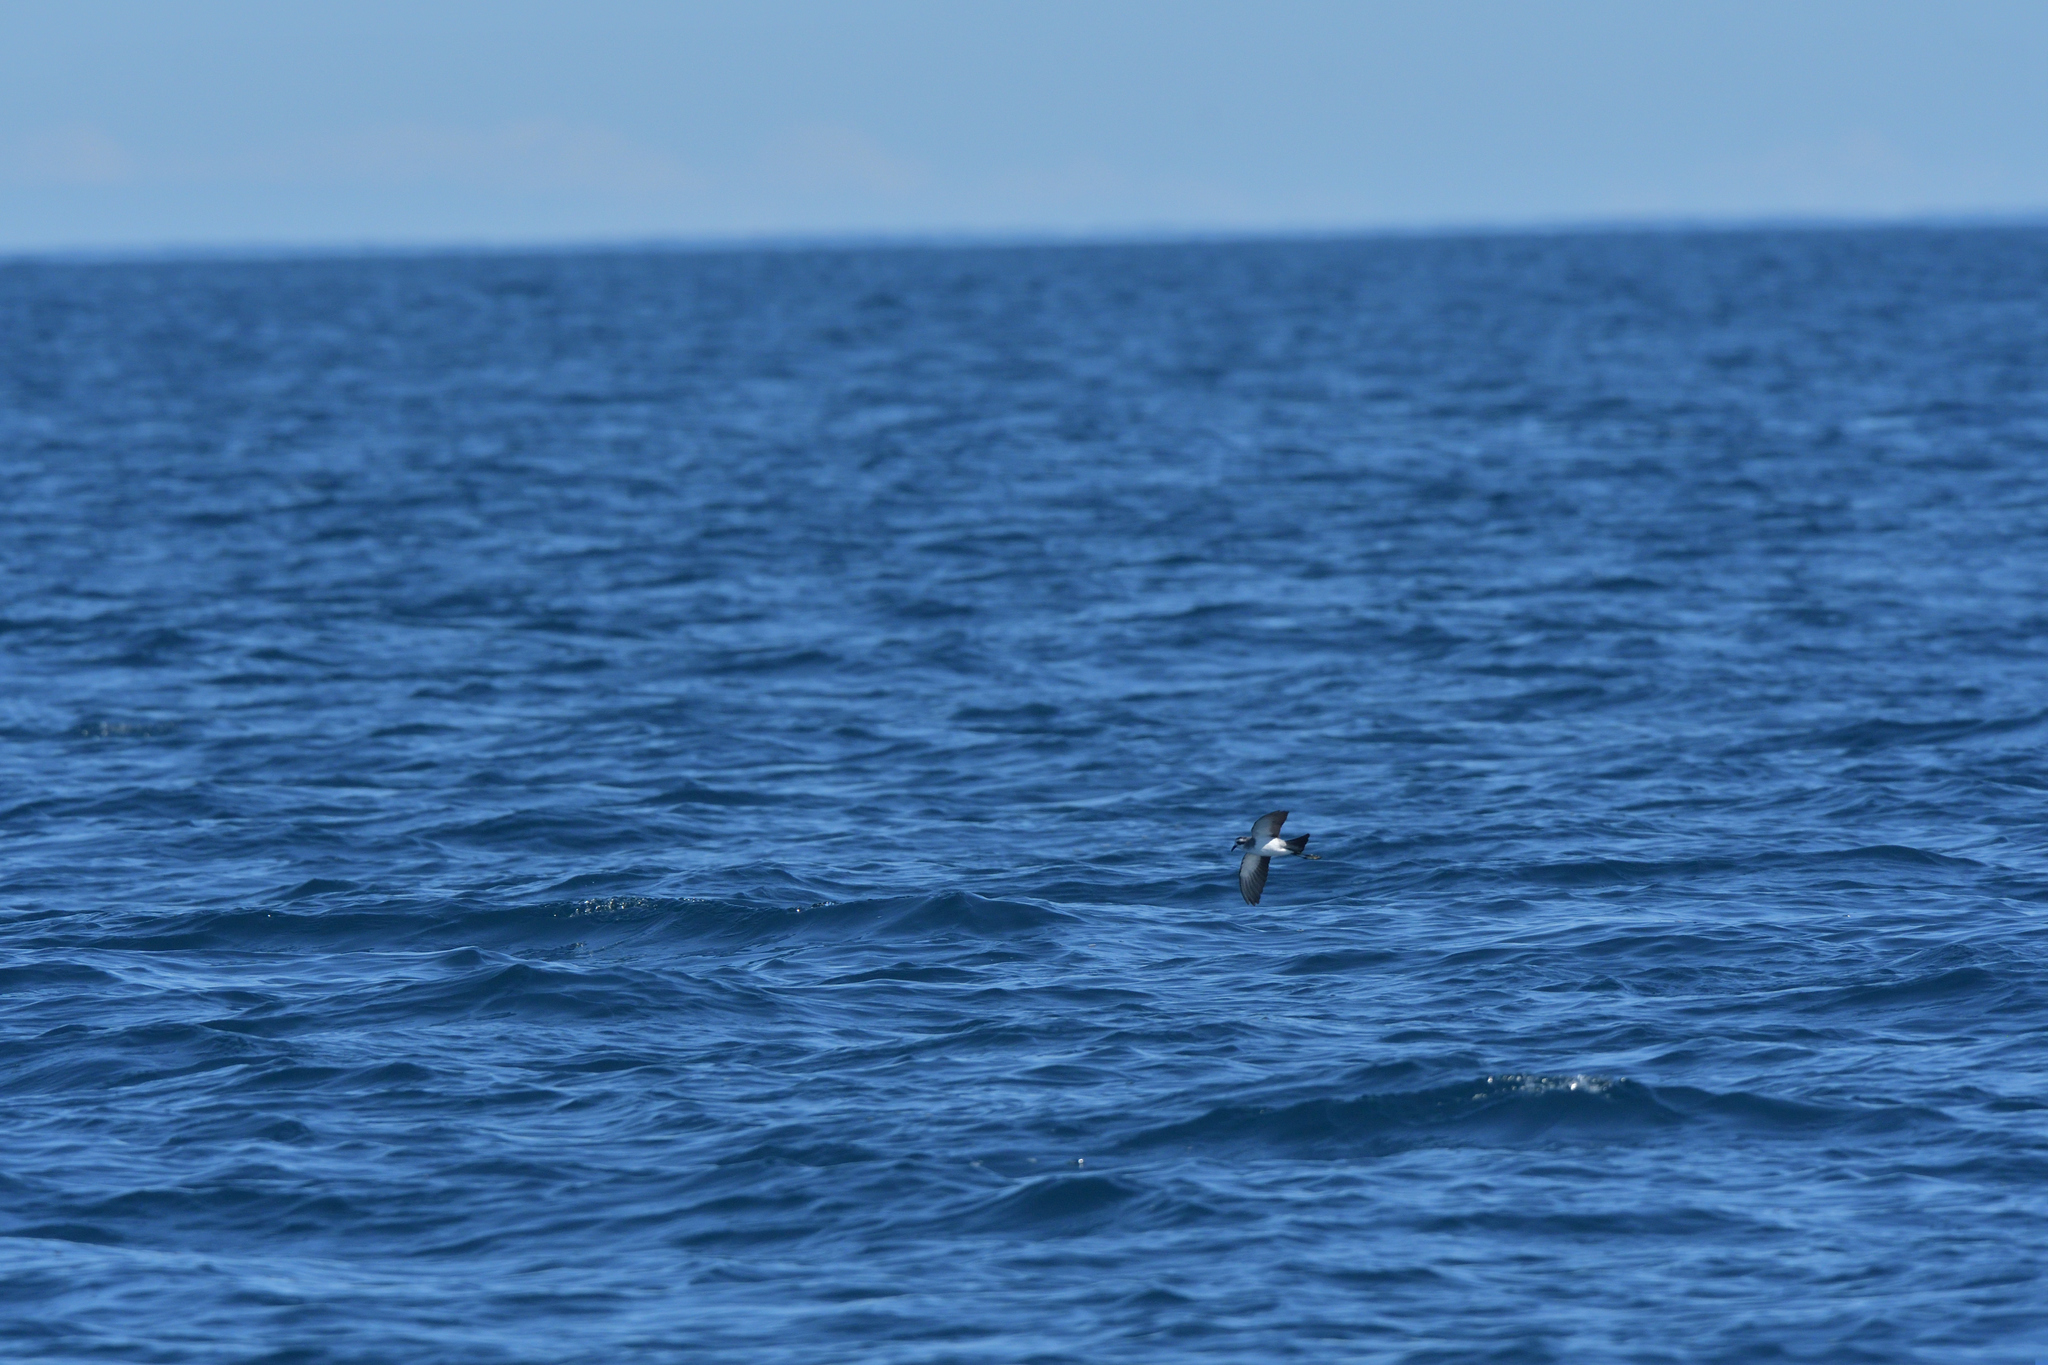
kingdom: Animalia
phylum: Chordata
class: Aves
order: Procellariiformes
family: Hydrobatidae
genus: Pelagodroma
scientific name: Pelagodroma marina
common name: White-faced storm-petrel
